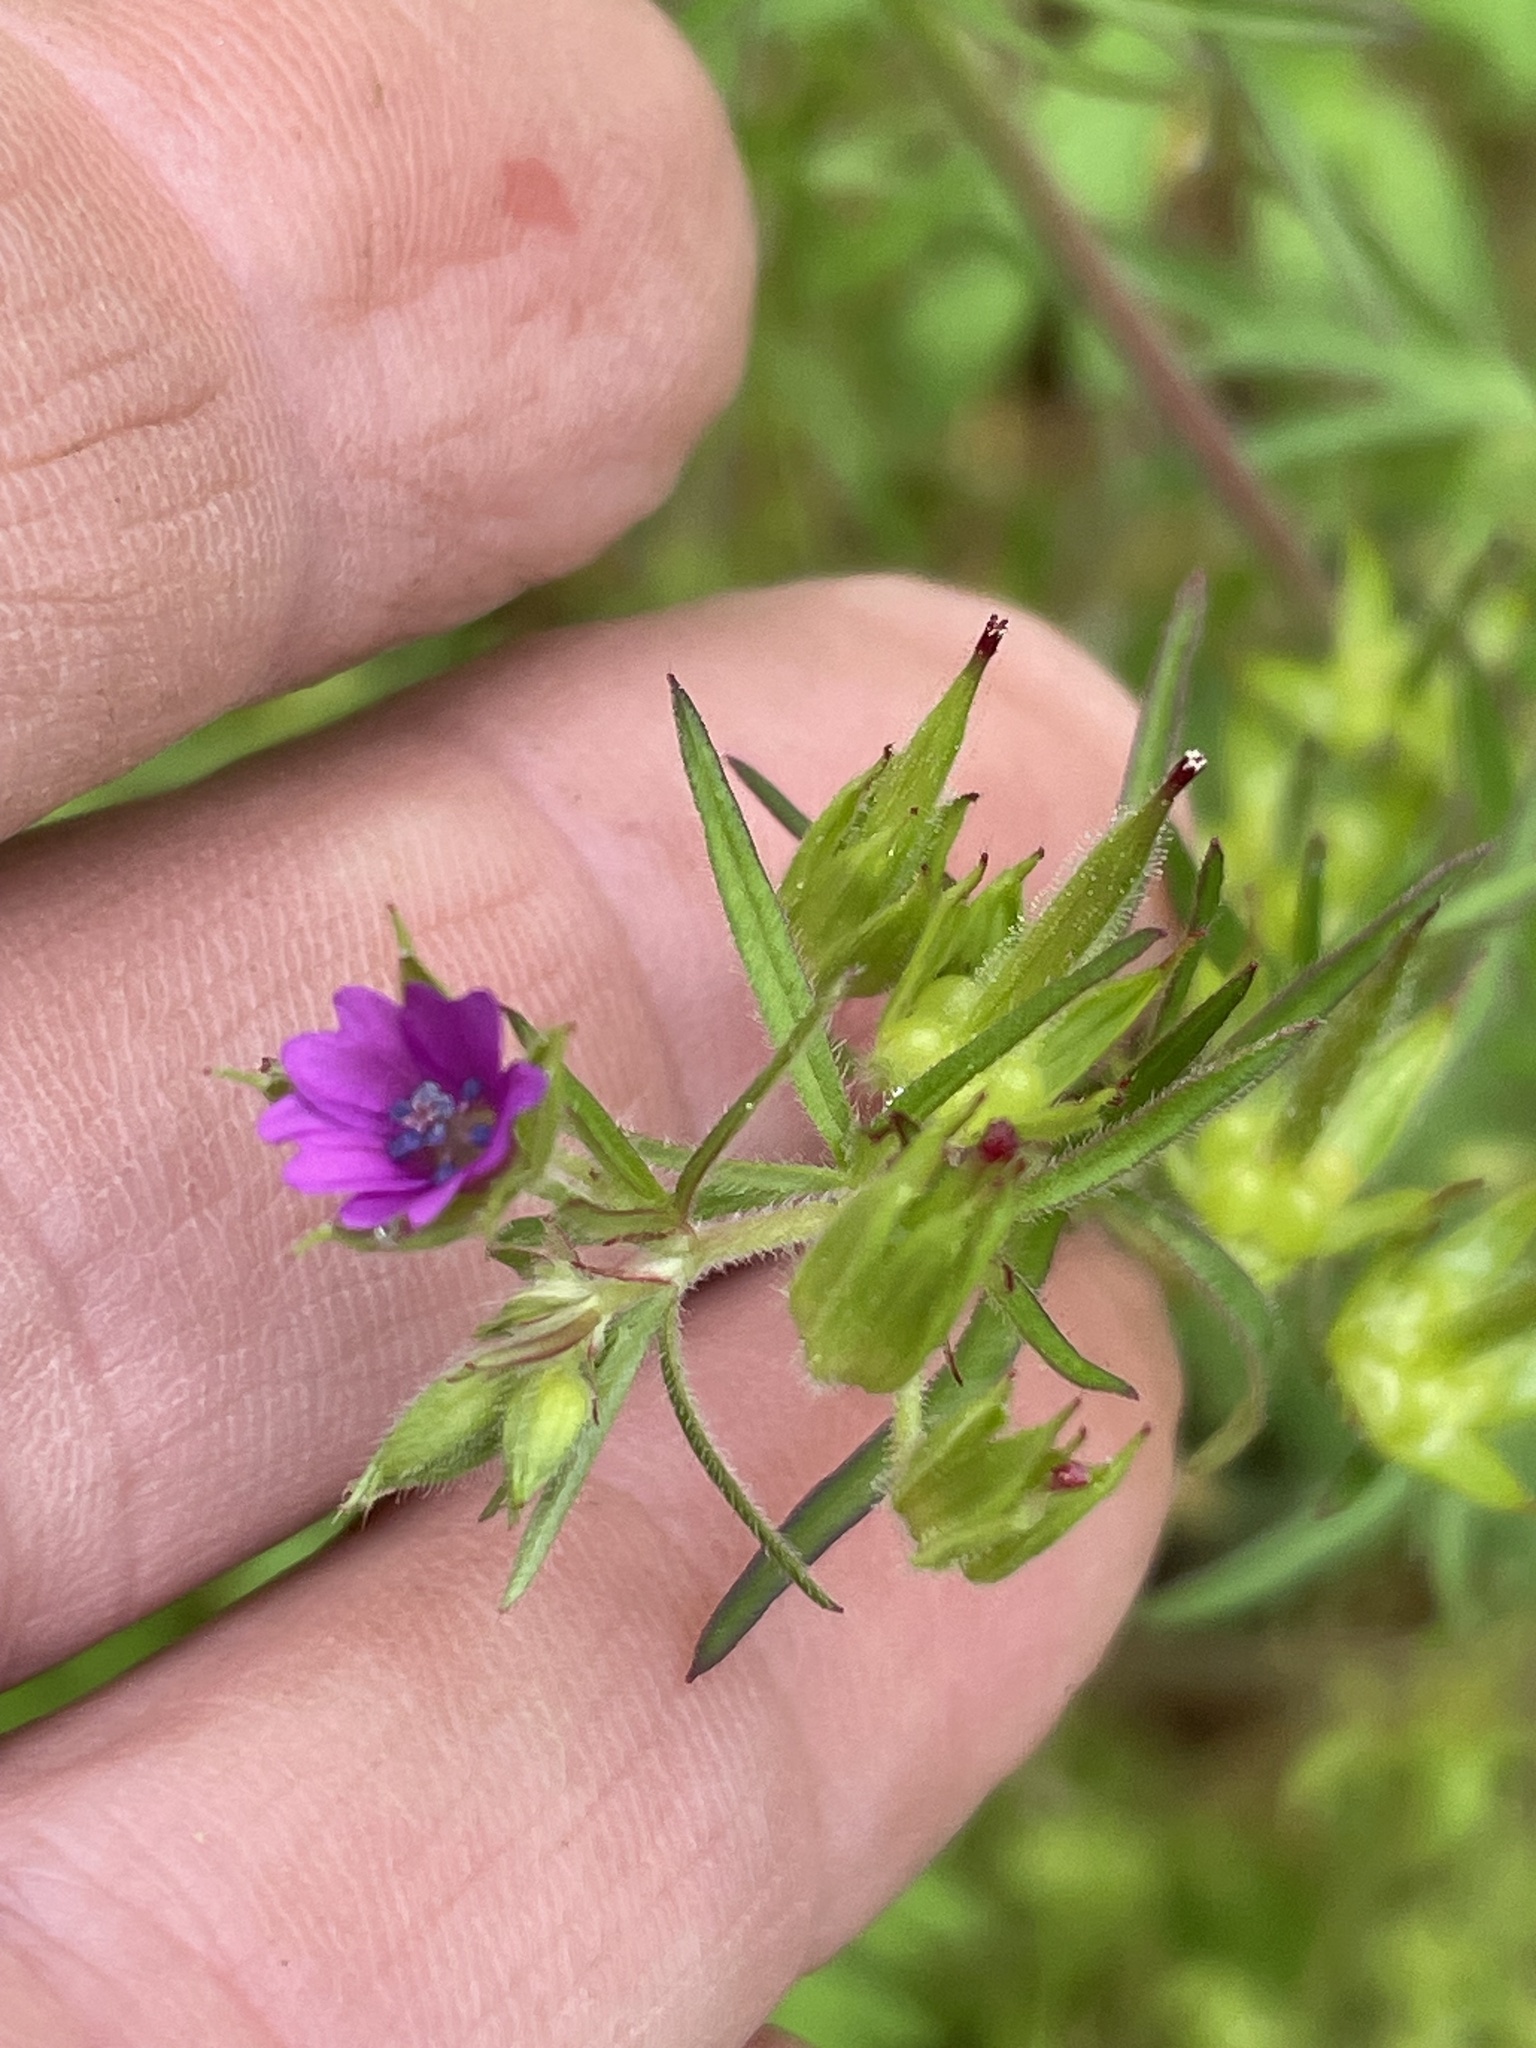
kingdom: Plantae
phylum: Tracheophyta
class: Magnoliopsida
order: Geraniales
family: Geraniaceae
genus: Geranium
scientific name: Geranium dissectum
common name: Cut-leaved crane's-bill
